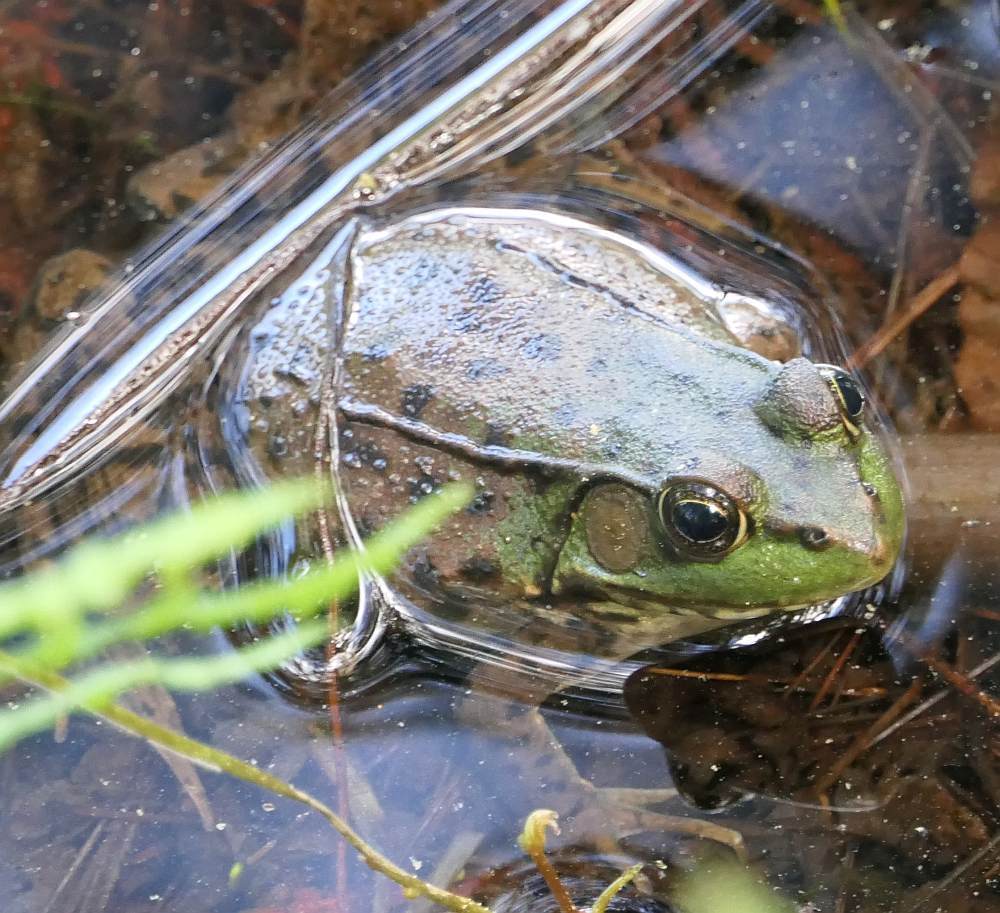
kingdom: Animalia
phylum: Chordata
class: Amphibia
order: Anura
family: Ranidae
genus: Lithobates
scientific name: Lithobates clamitans
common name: Green frog
